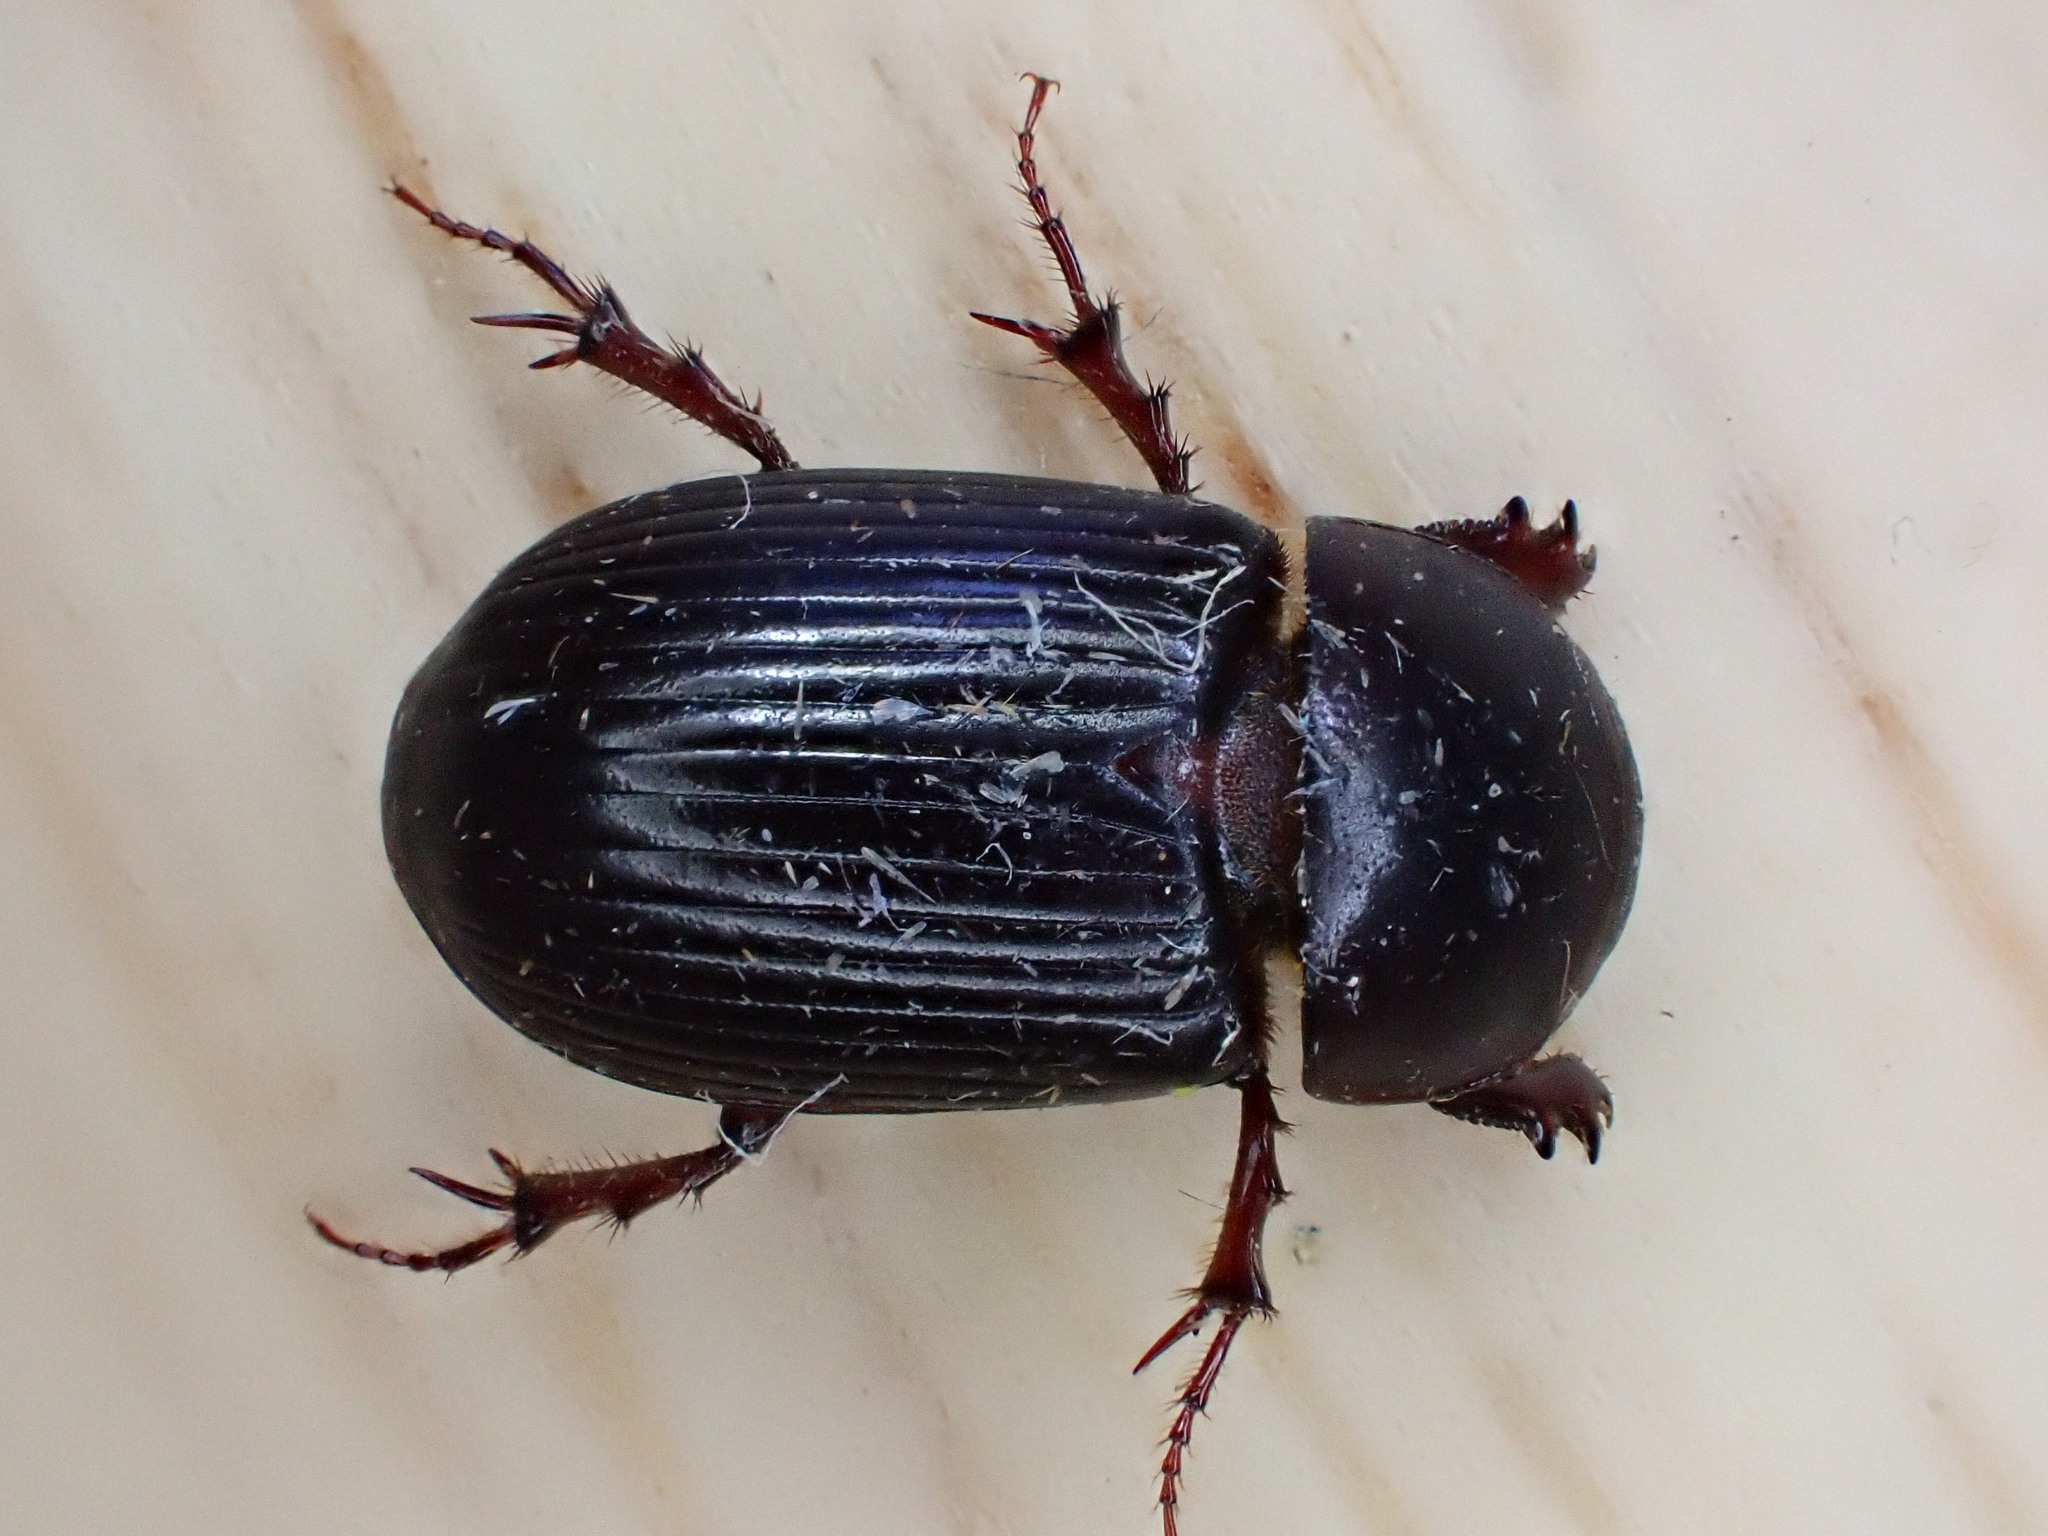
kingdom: Animalia
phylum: Arthropoda
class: Insecta
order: Coleoptera
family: Scarabaeidae
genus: Acrossus
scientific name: Acrossus rufipes
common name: Night-flying dung beetle
